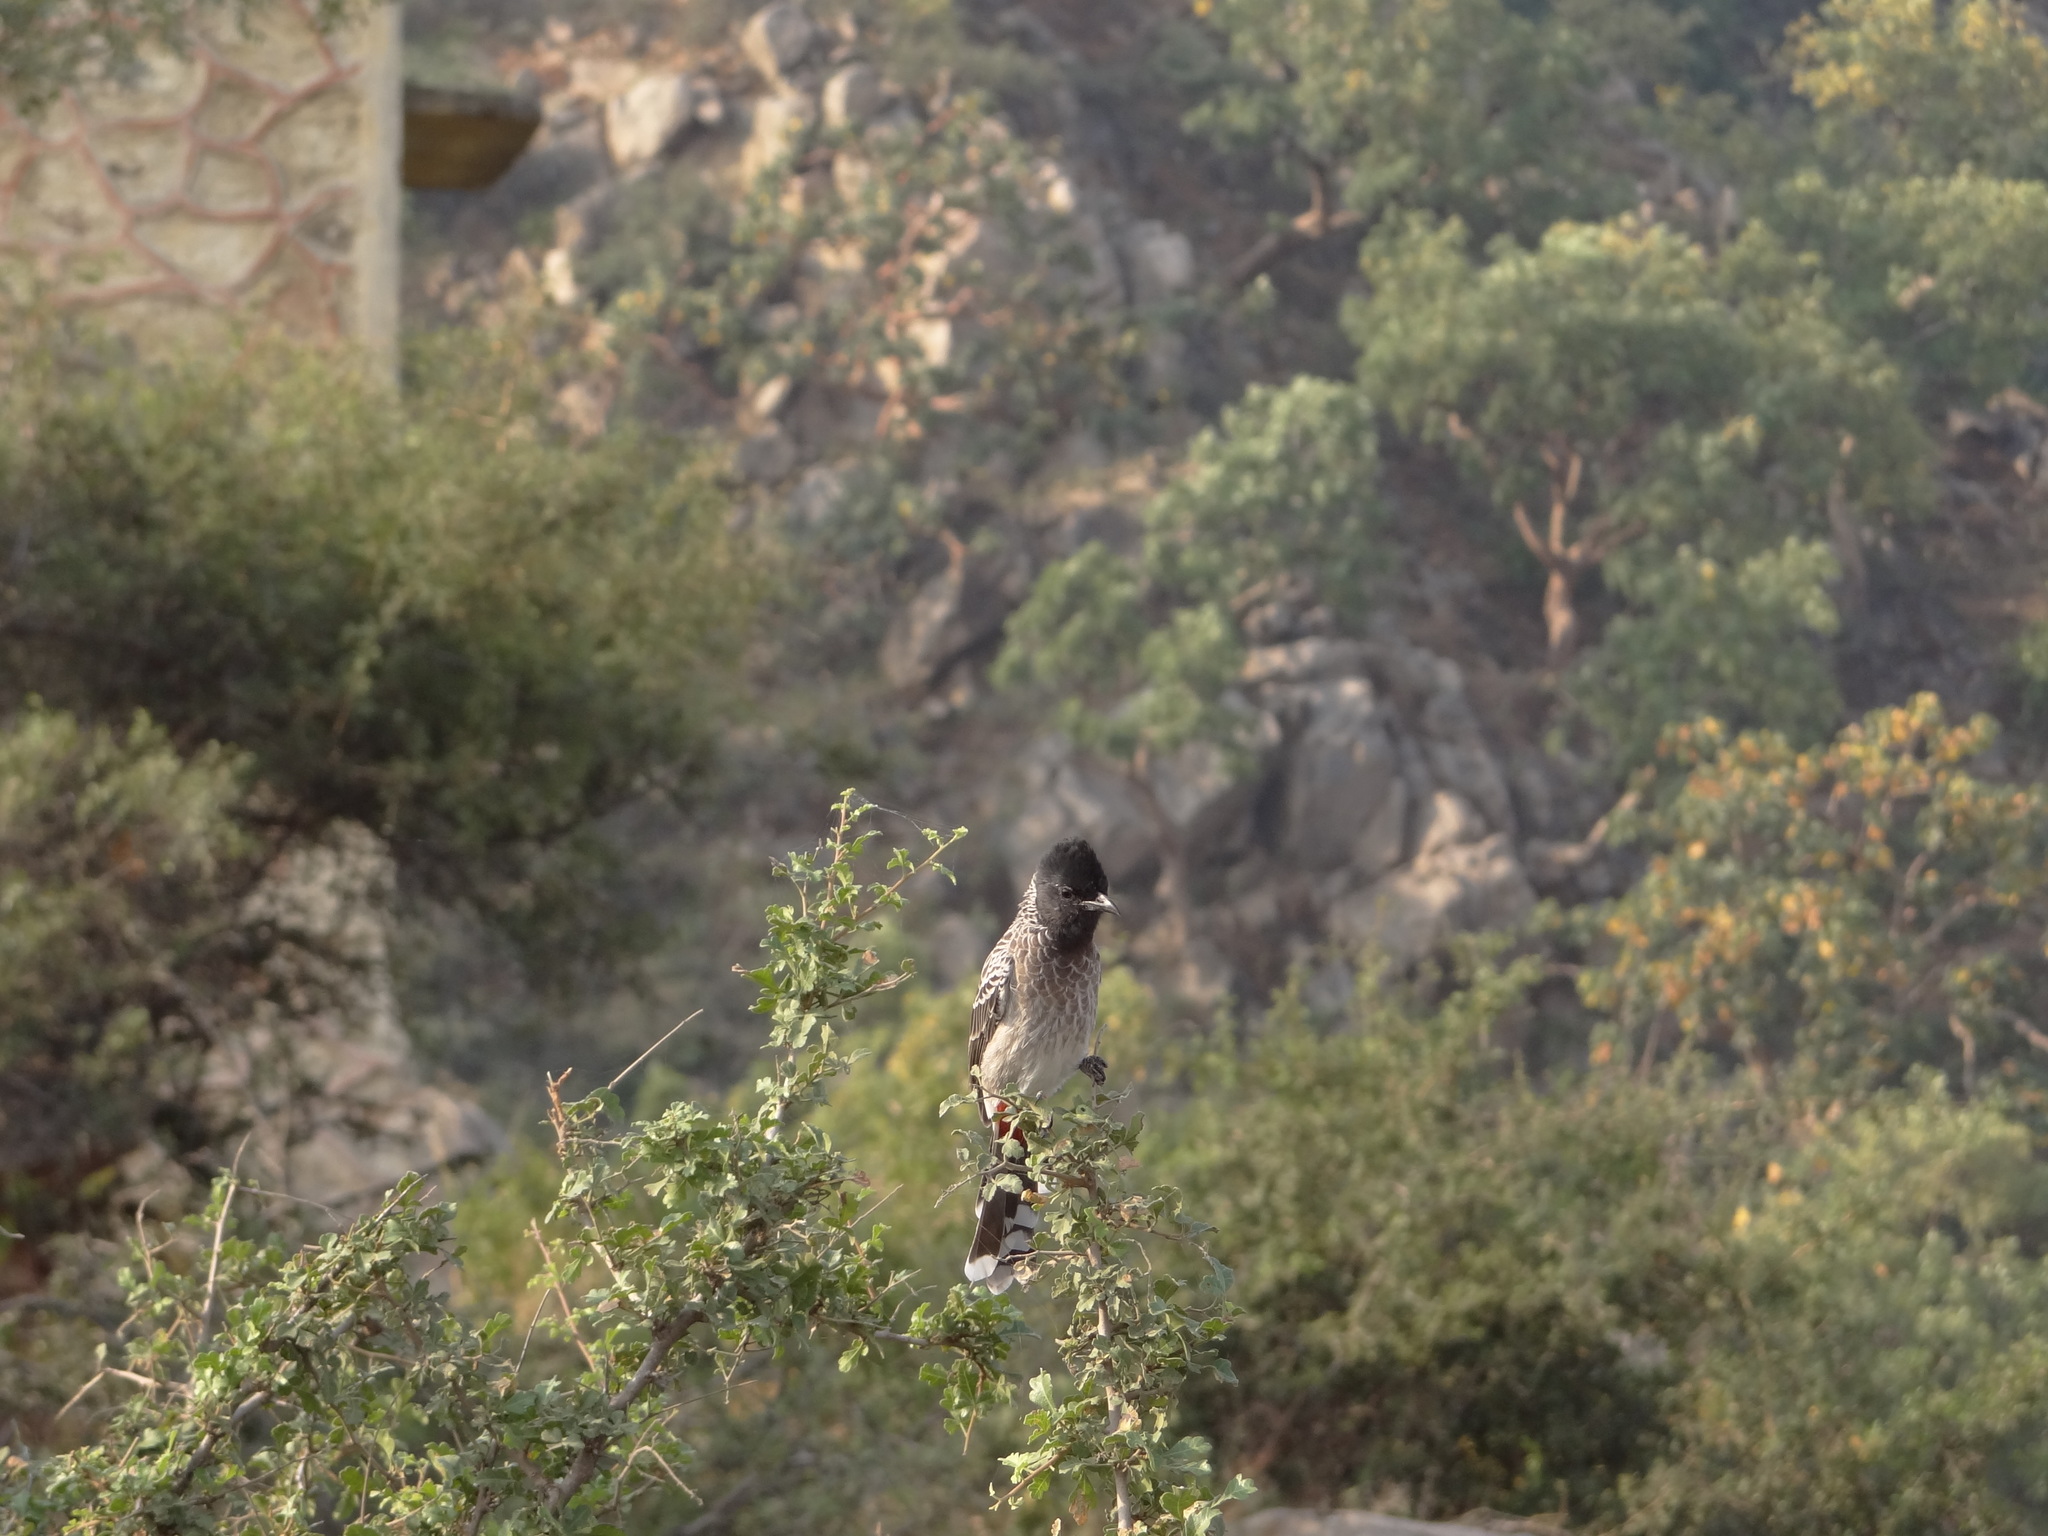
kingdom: Animalia
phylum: Chordata
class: Aves
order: Passeriformes
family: Pycnonotidae
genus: Pycnonotus
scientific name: Pycnonotus cafer
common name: Red-vented bulbul
